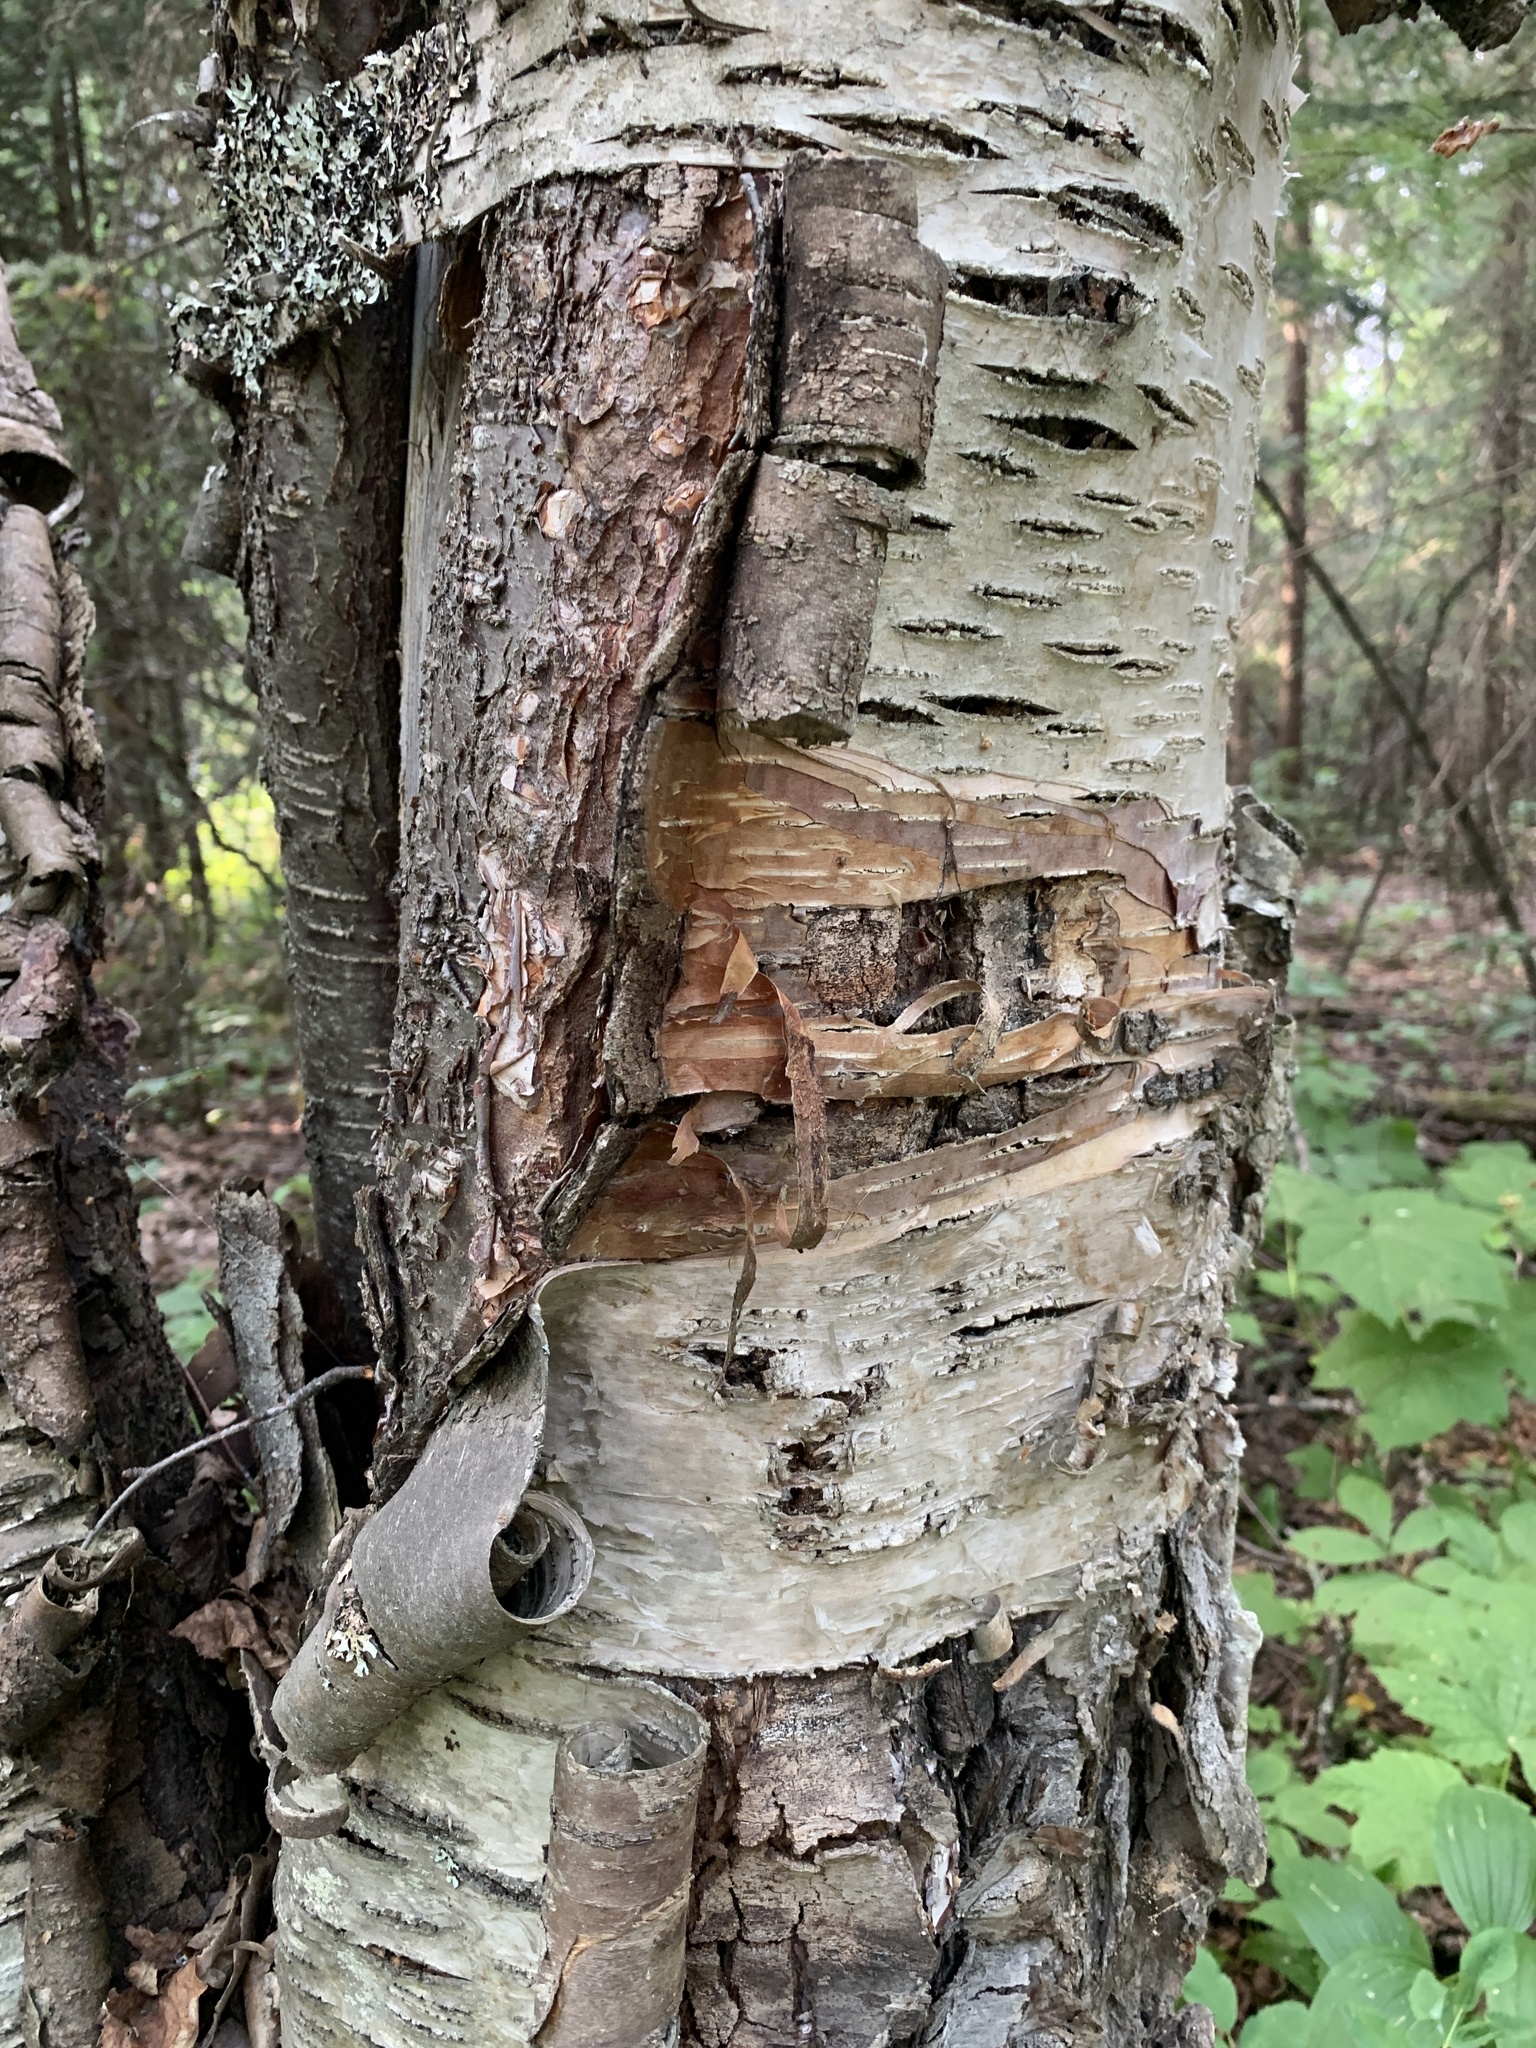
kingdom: Plantae
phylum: Tracheophyta
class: Magnoliopsida
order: Fagales
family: Betulaceae
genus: Betula
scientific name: Betula papyrifera
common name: Paper birch
